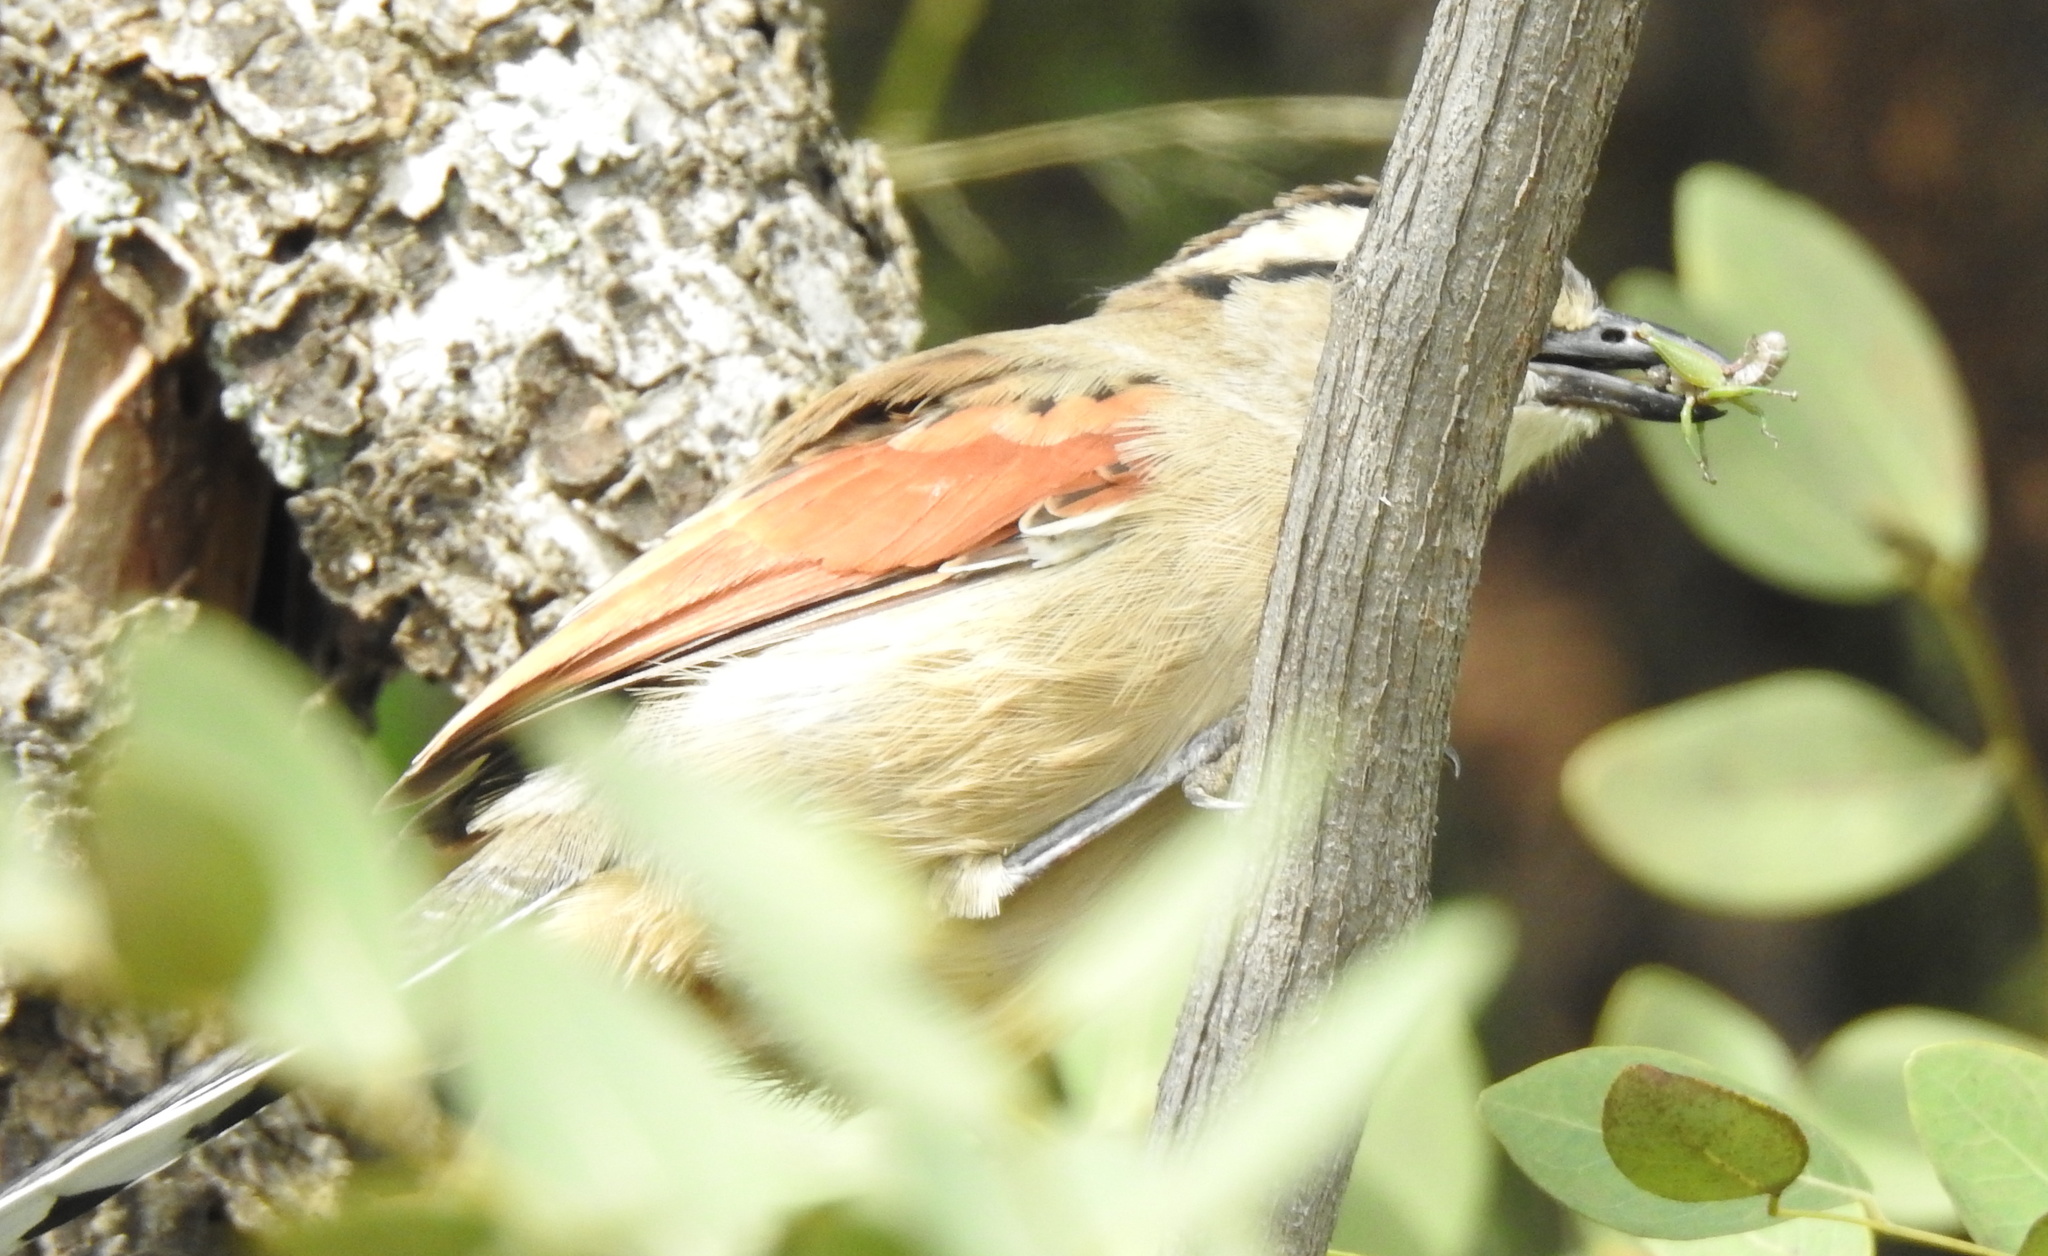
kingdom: Animalia
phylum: Chordata
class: Aves
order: Passeriformes
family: Malaconotidae
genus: Tchagra
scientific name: Tchagra australis
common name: Brown-crowned tchagra
